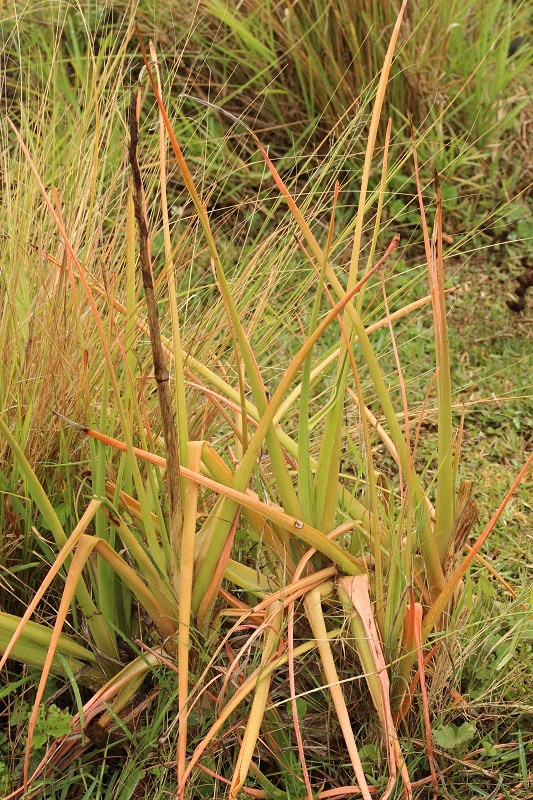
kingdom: Plantae
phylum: Tracheophyta
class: Liliopsida
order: Asparagales
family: Asphodelaceae
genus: Aloe
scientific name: Aloe cooperi
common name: Cooper's aloe
